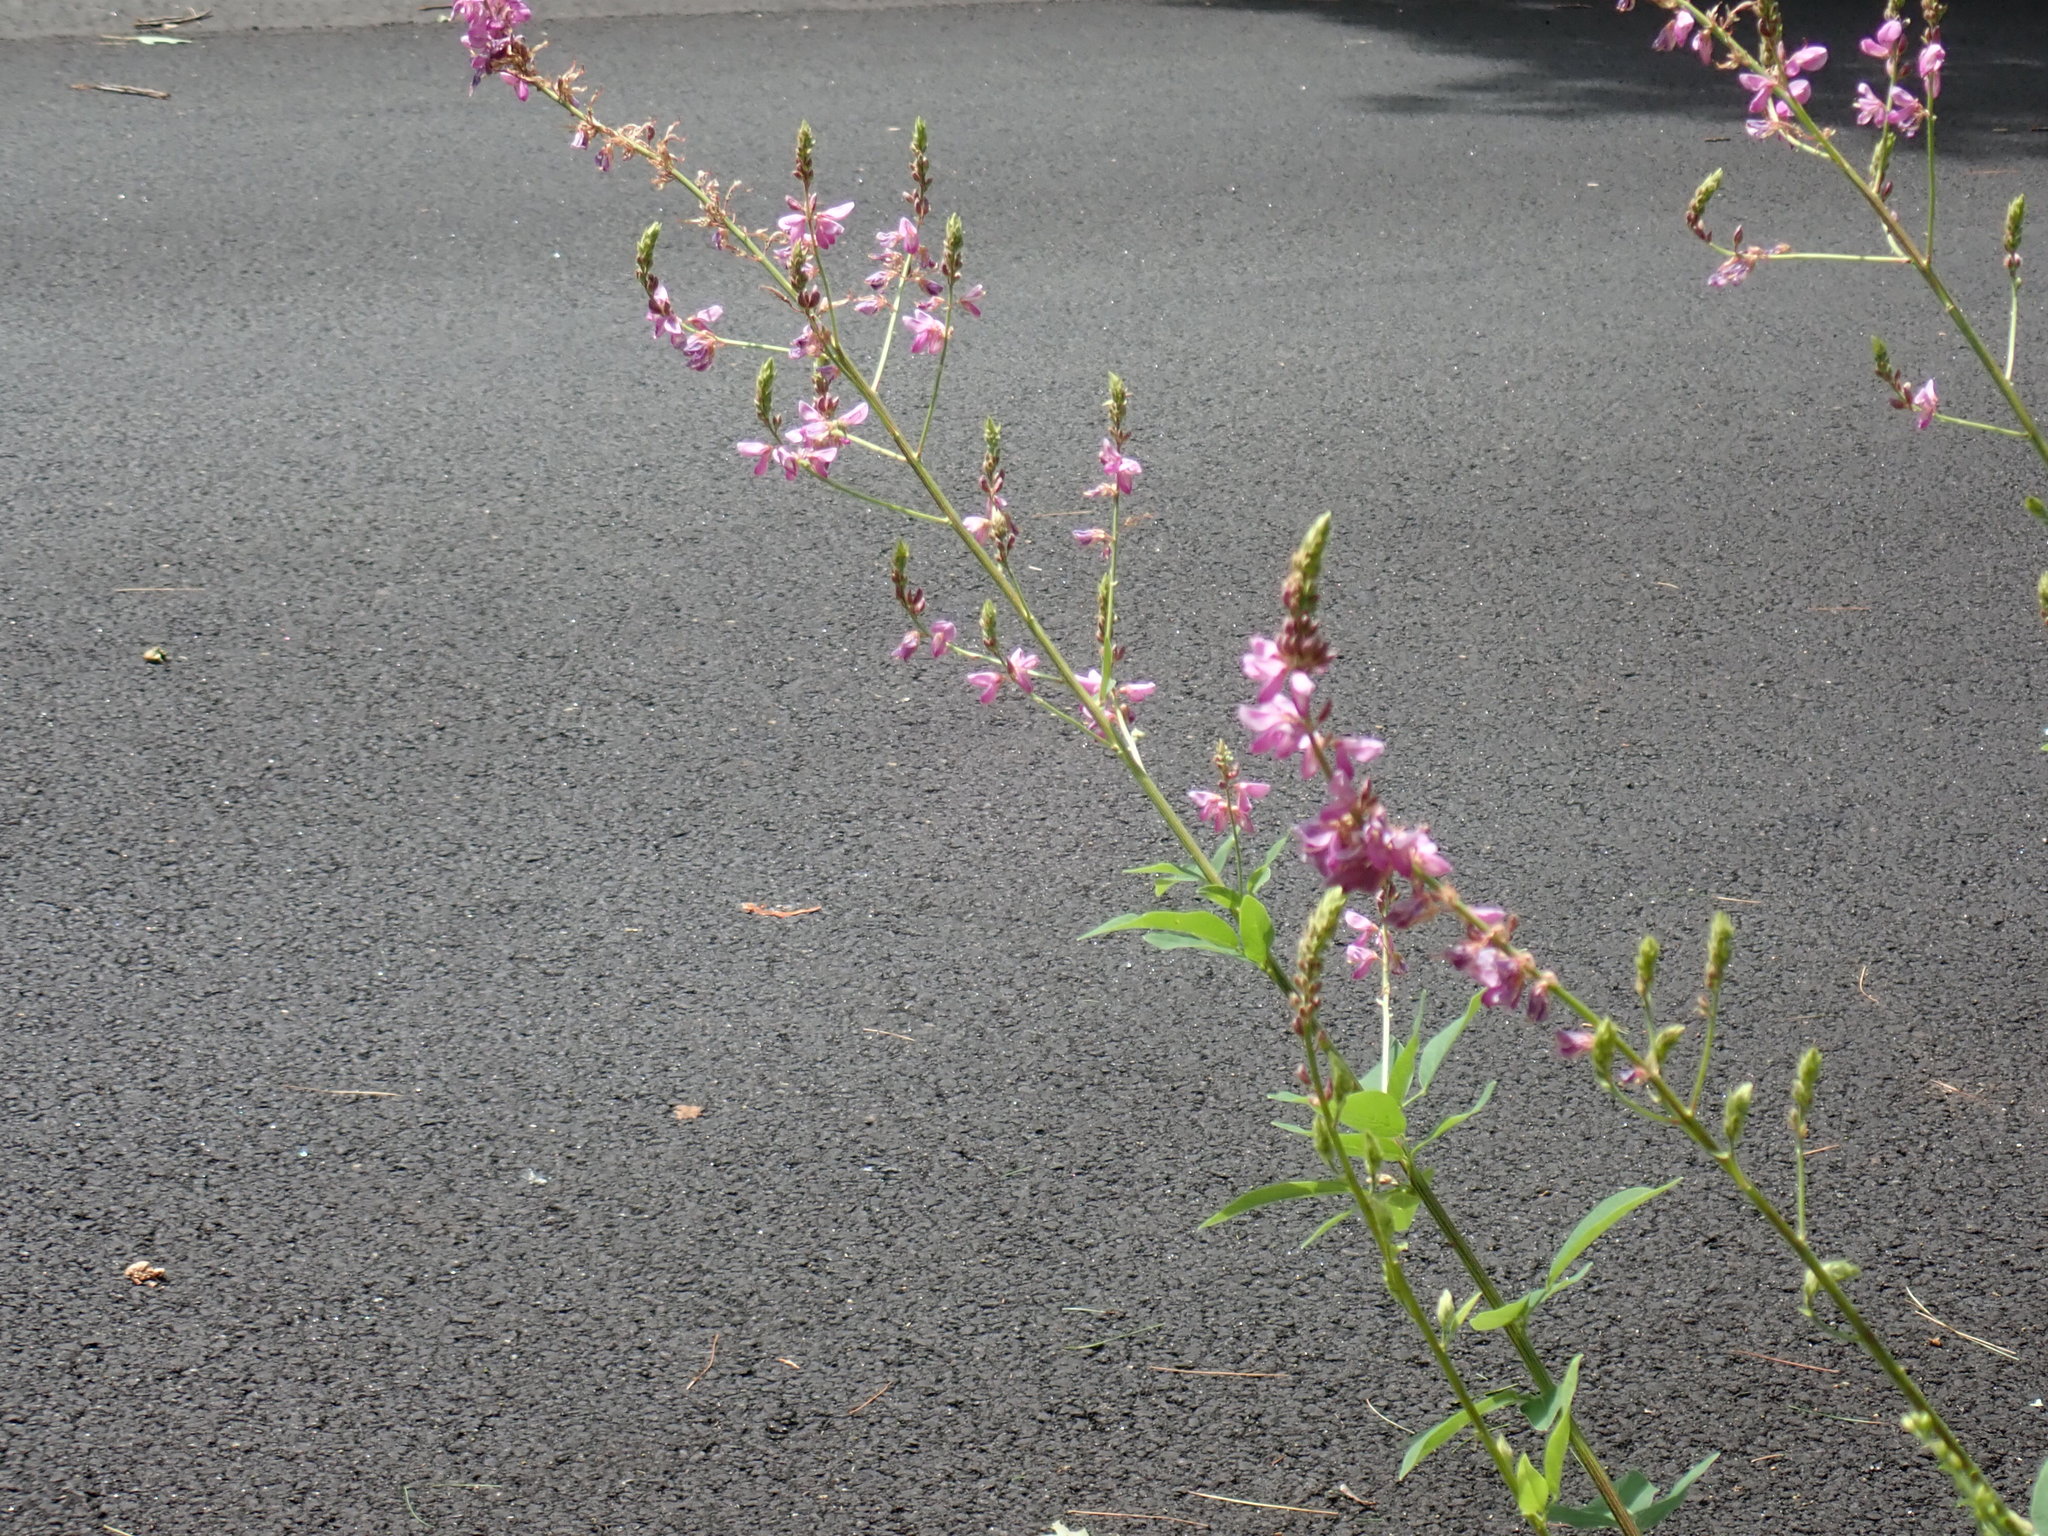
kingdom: Plantae
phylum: Tracheophyta
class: Magnoliopsida
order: Fabales
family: Fabaceae
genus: Desmodium
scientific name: Desmodium canadense
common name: Canada tick-trefoil
